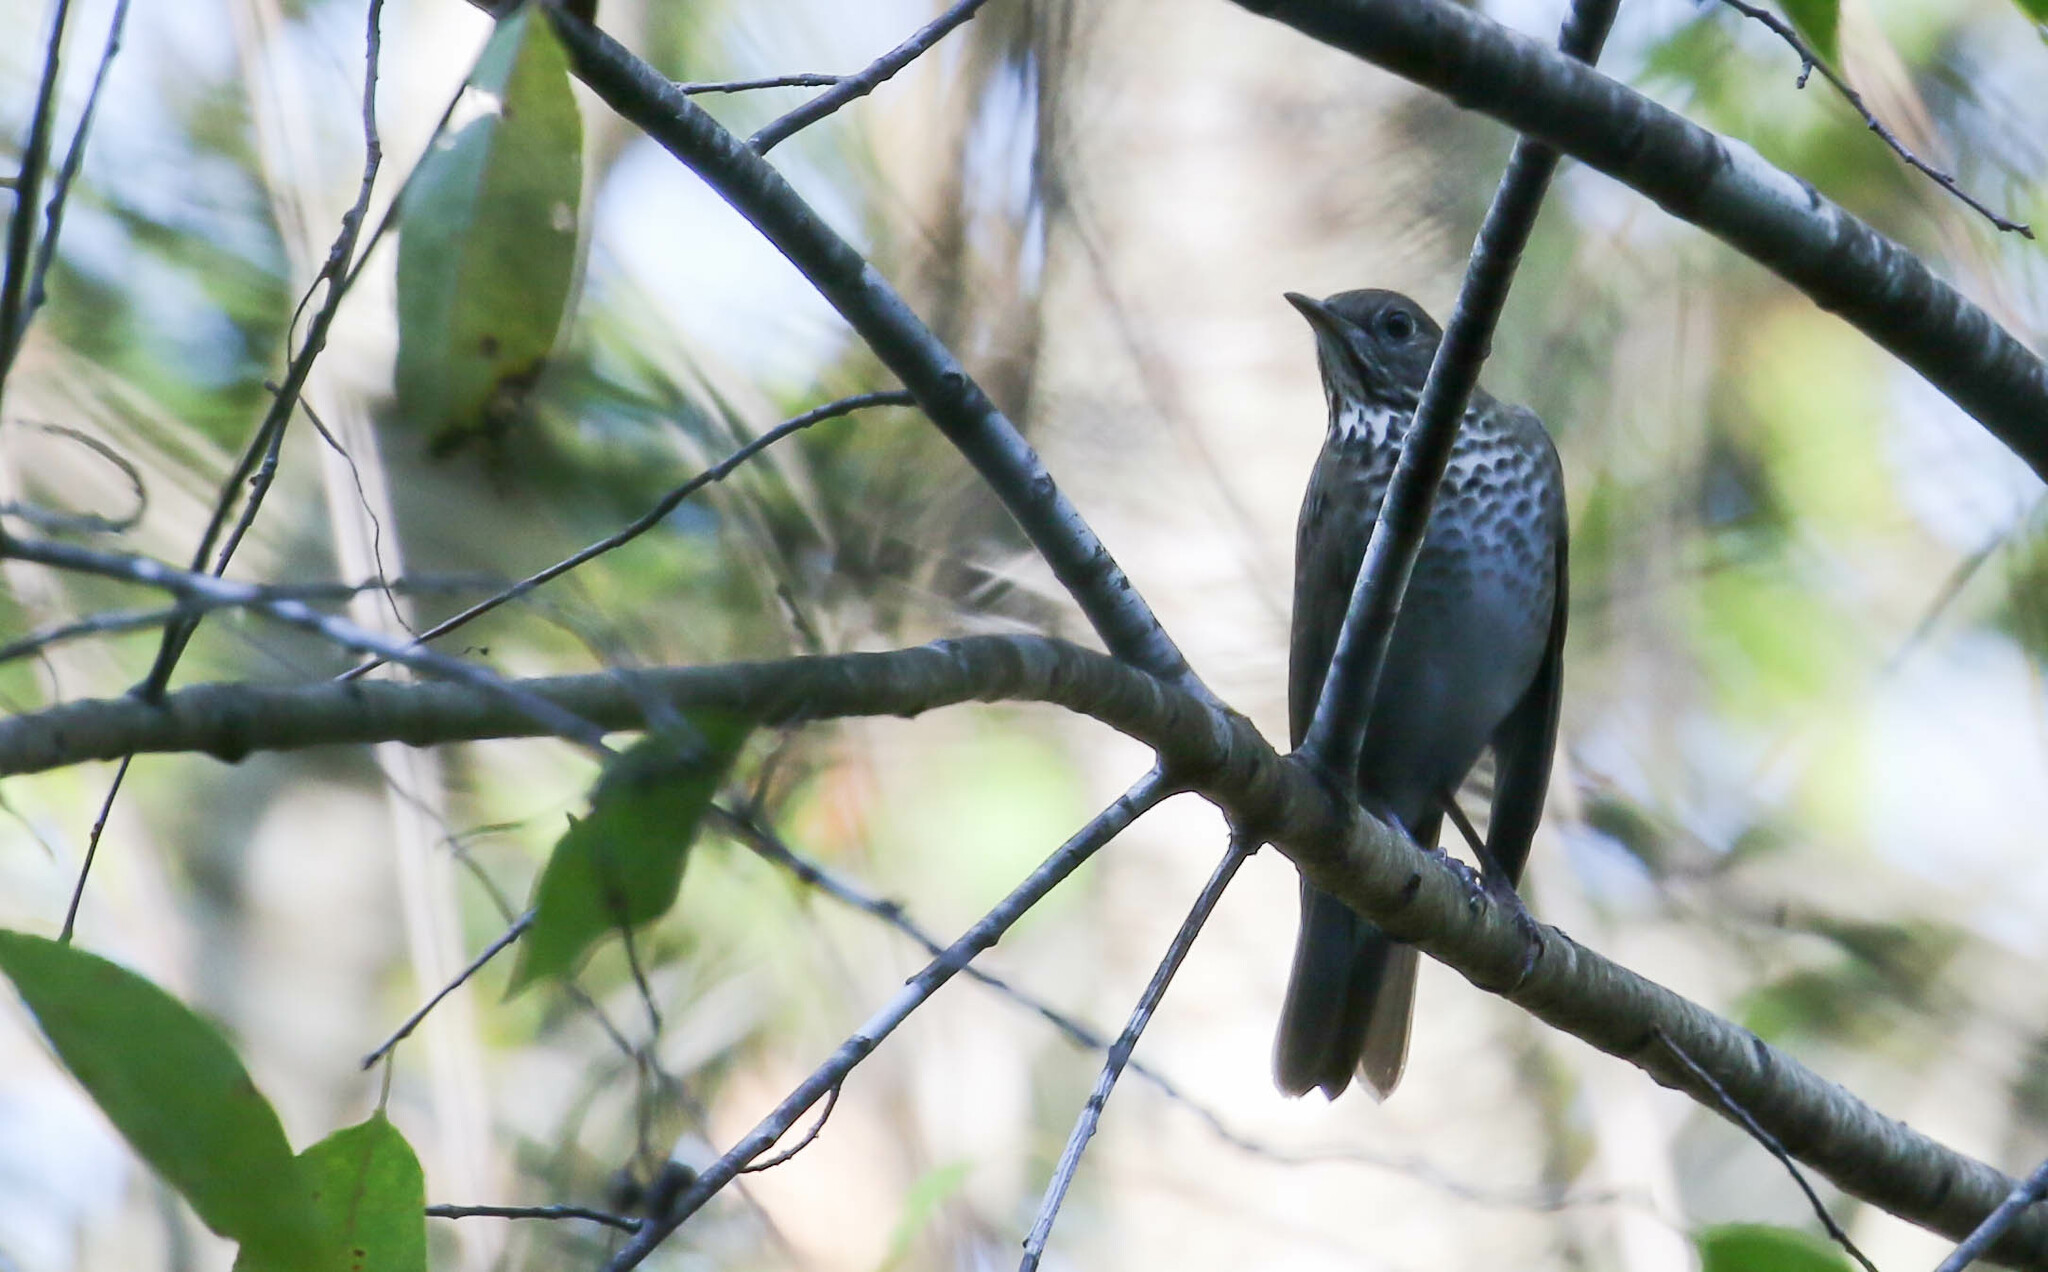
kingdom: Animalia
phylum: Chordata
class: Aves
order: Passeriformes
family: Turdidae
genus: Catharus
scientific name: Catharus minimus
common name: Grey-cheeked thrush
